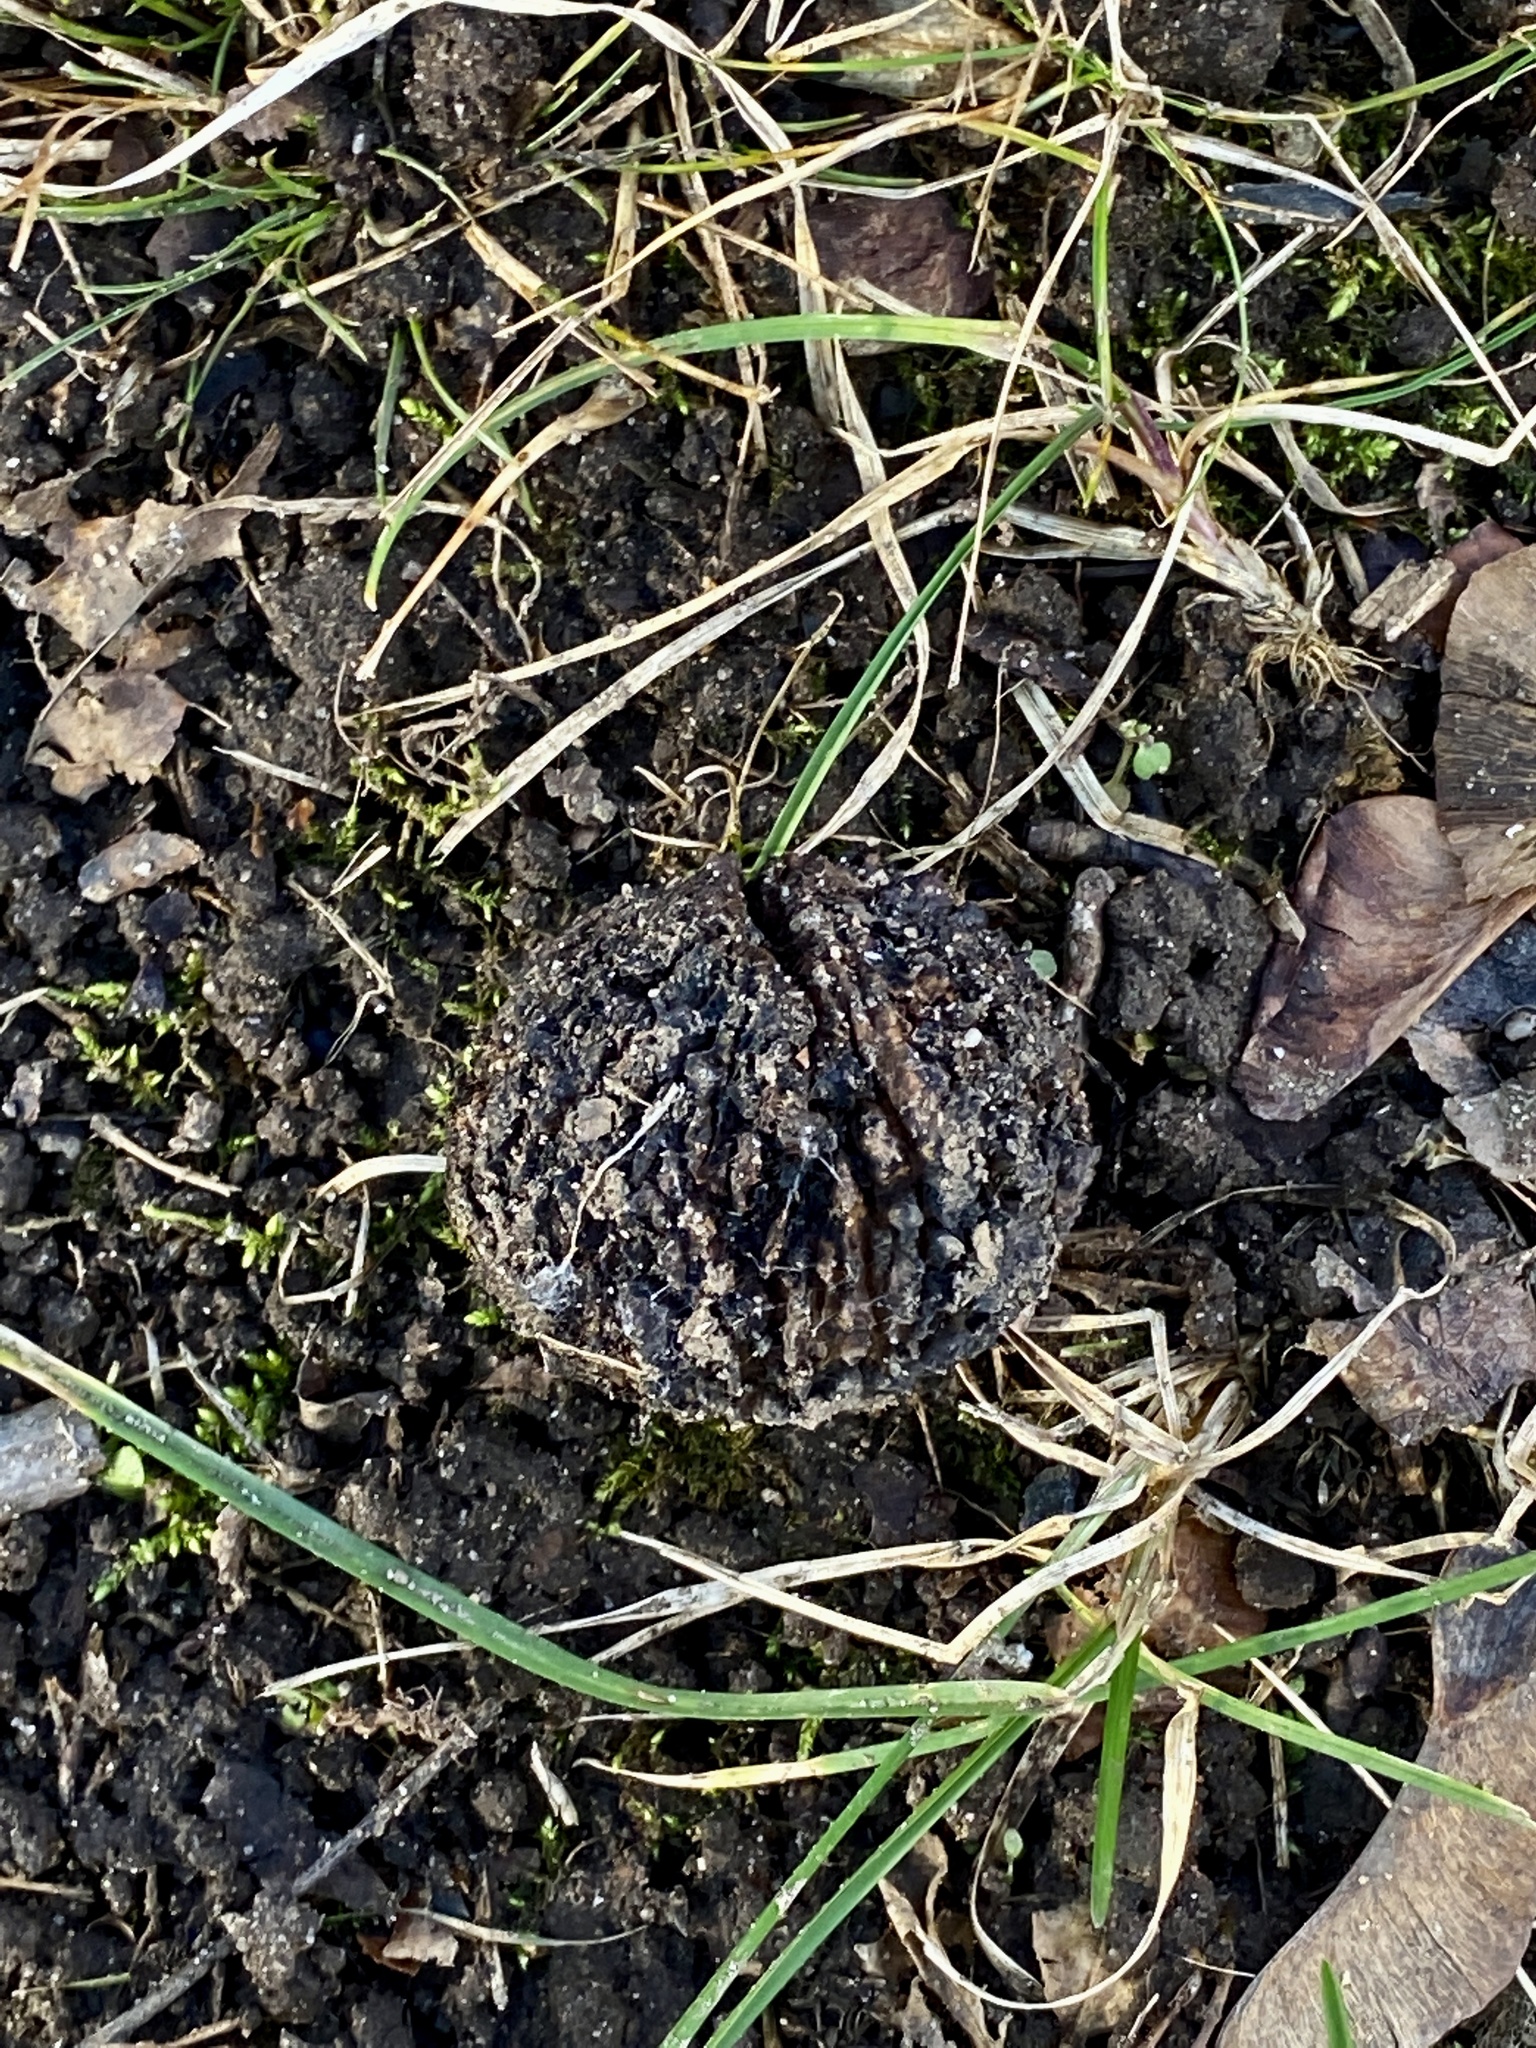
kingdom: Plantae
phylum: Tracheophyta
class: Magnoliopsida
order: Fagales
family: Juglandaceae
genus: Juglans
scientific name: Juglans nigra
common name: Black walnut
